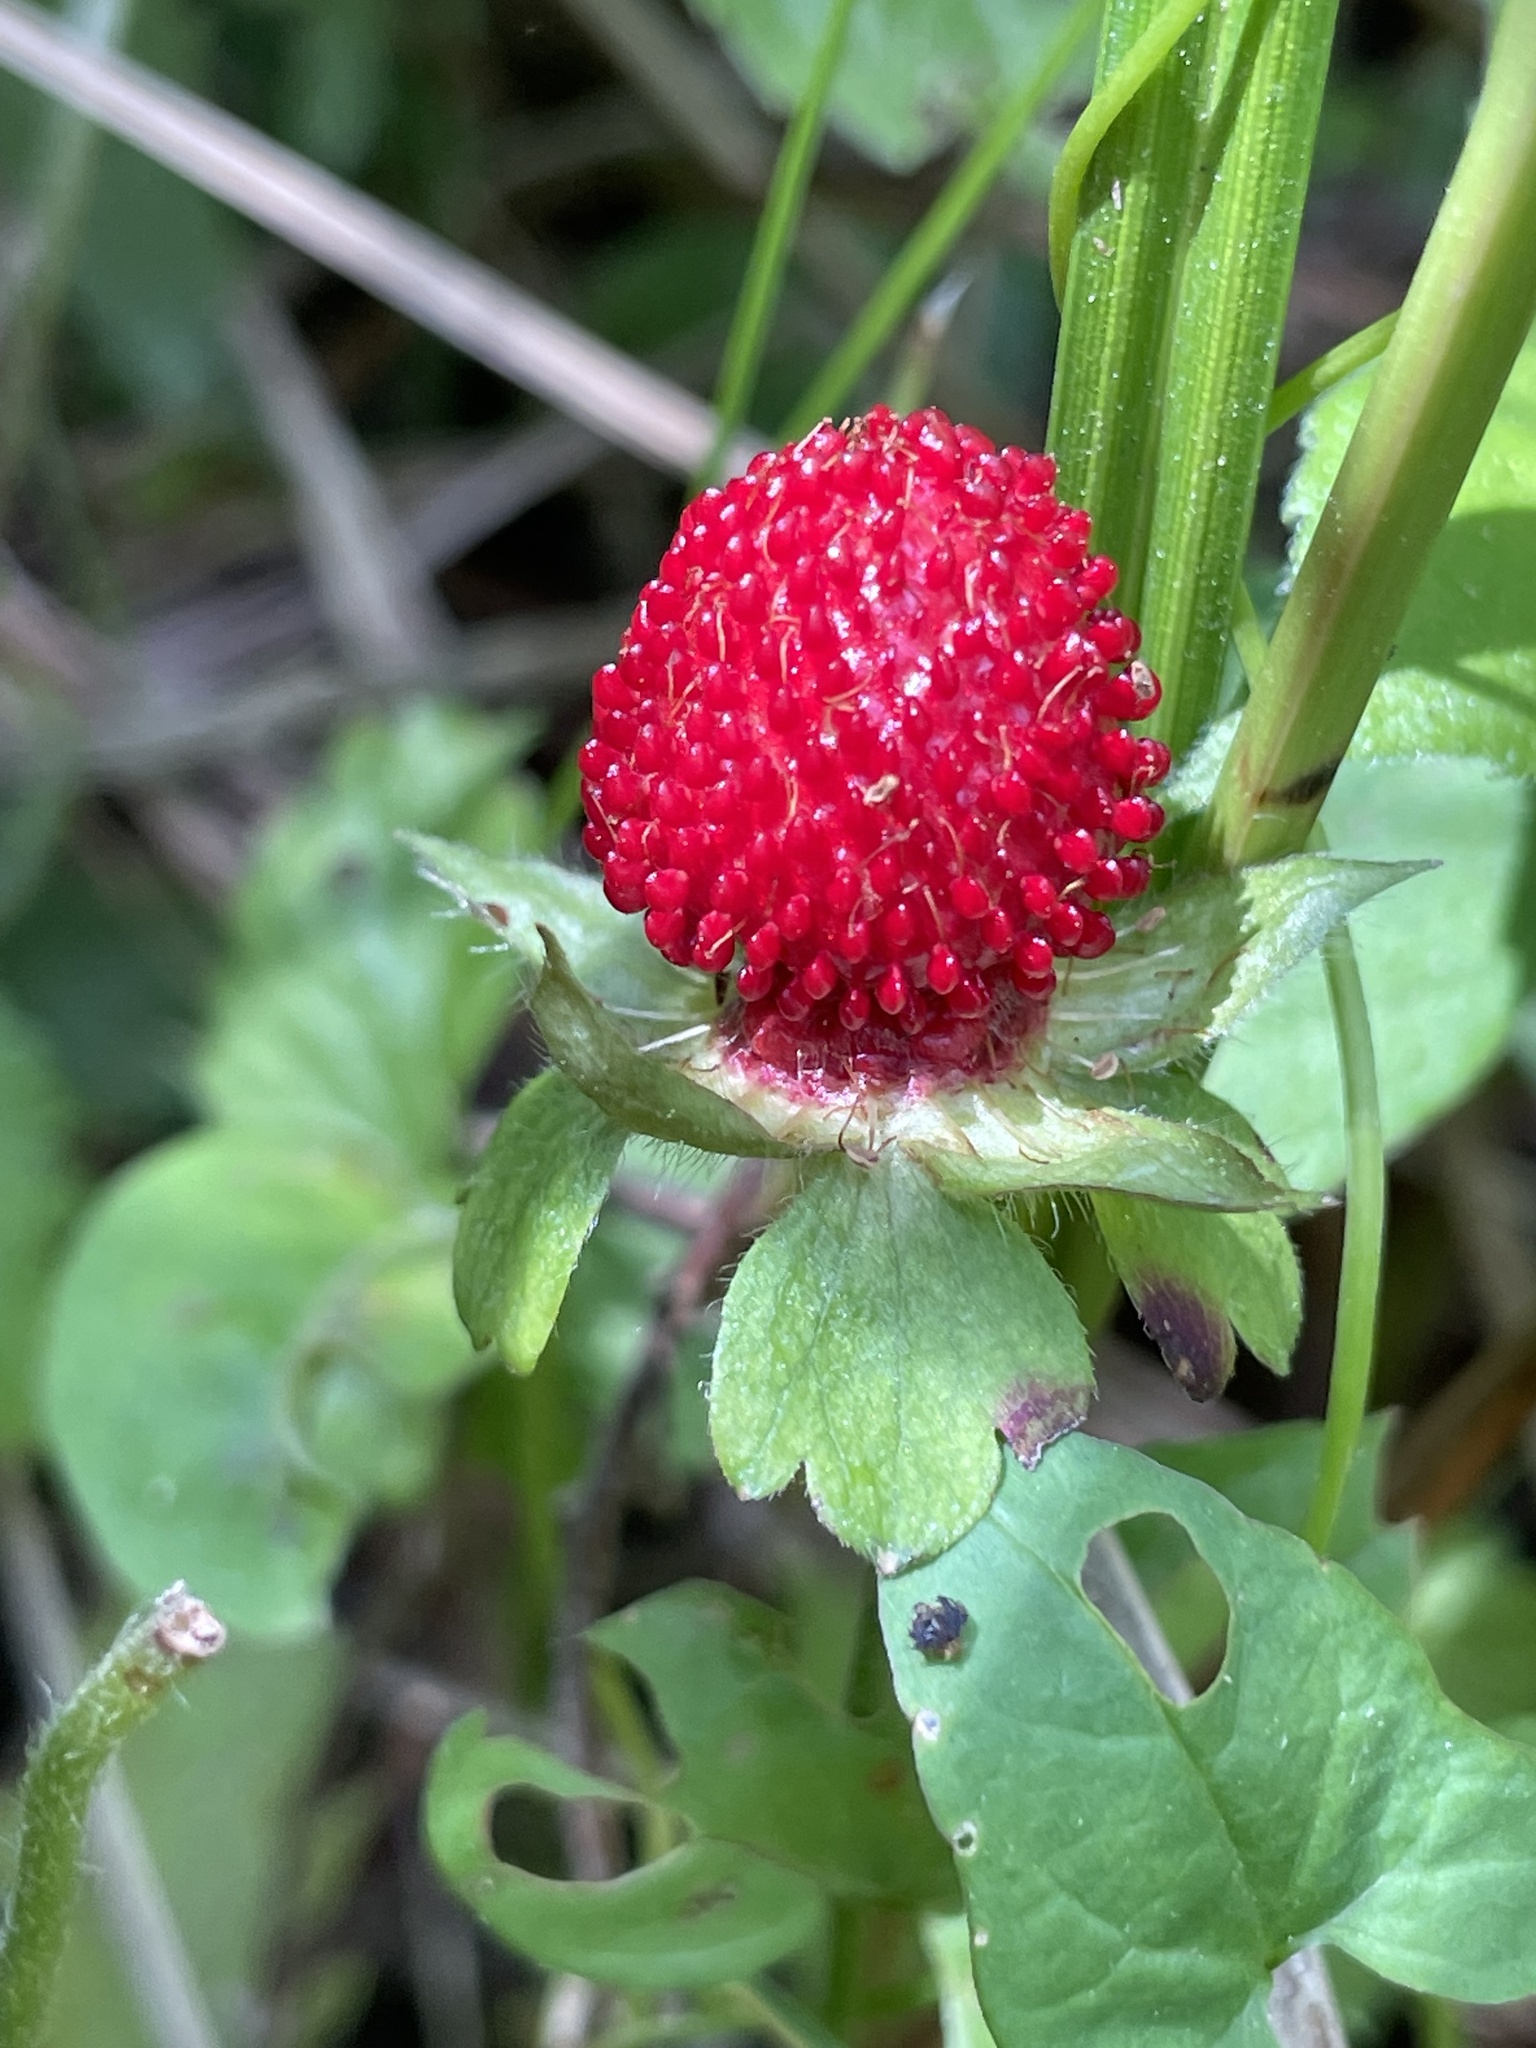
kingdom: Plantae
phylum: Tracheophyta
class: Magnoliopsida
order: Rosales
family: Rosaceae
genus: Potentilla
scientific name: Potentilla indica
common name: Yellow-flowered strawberry
